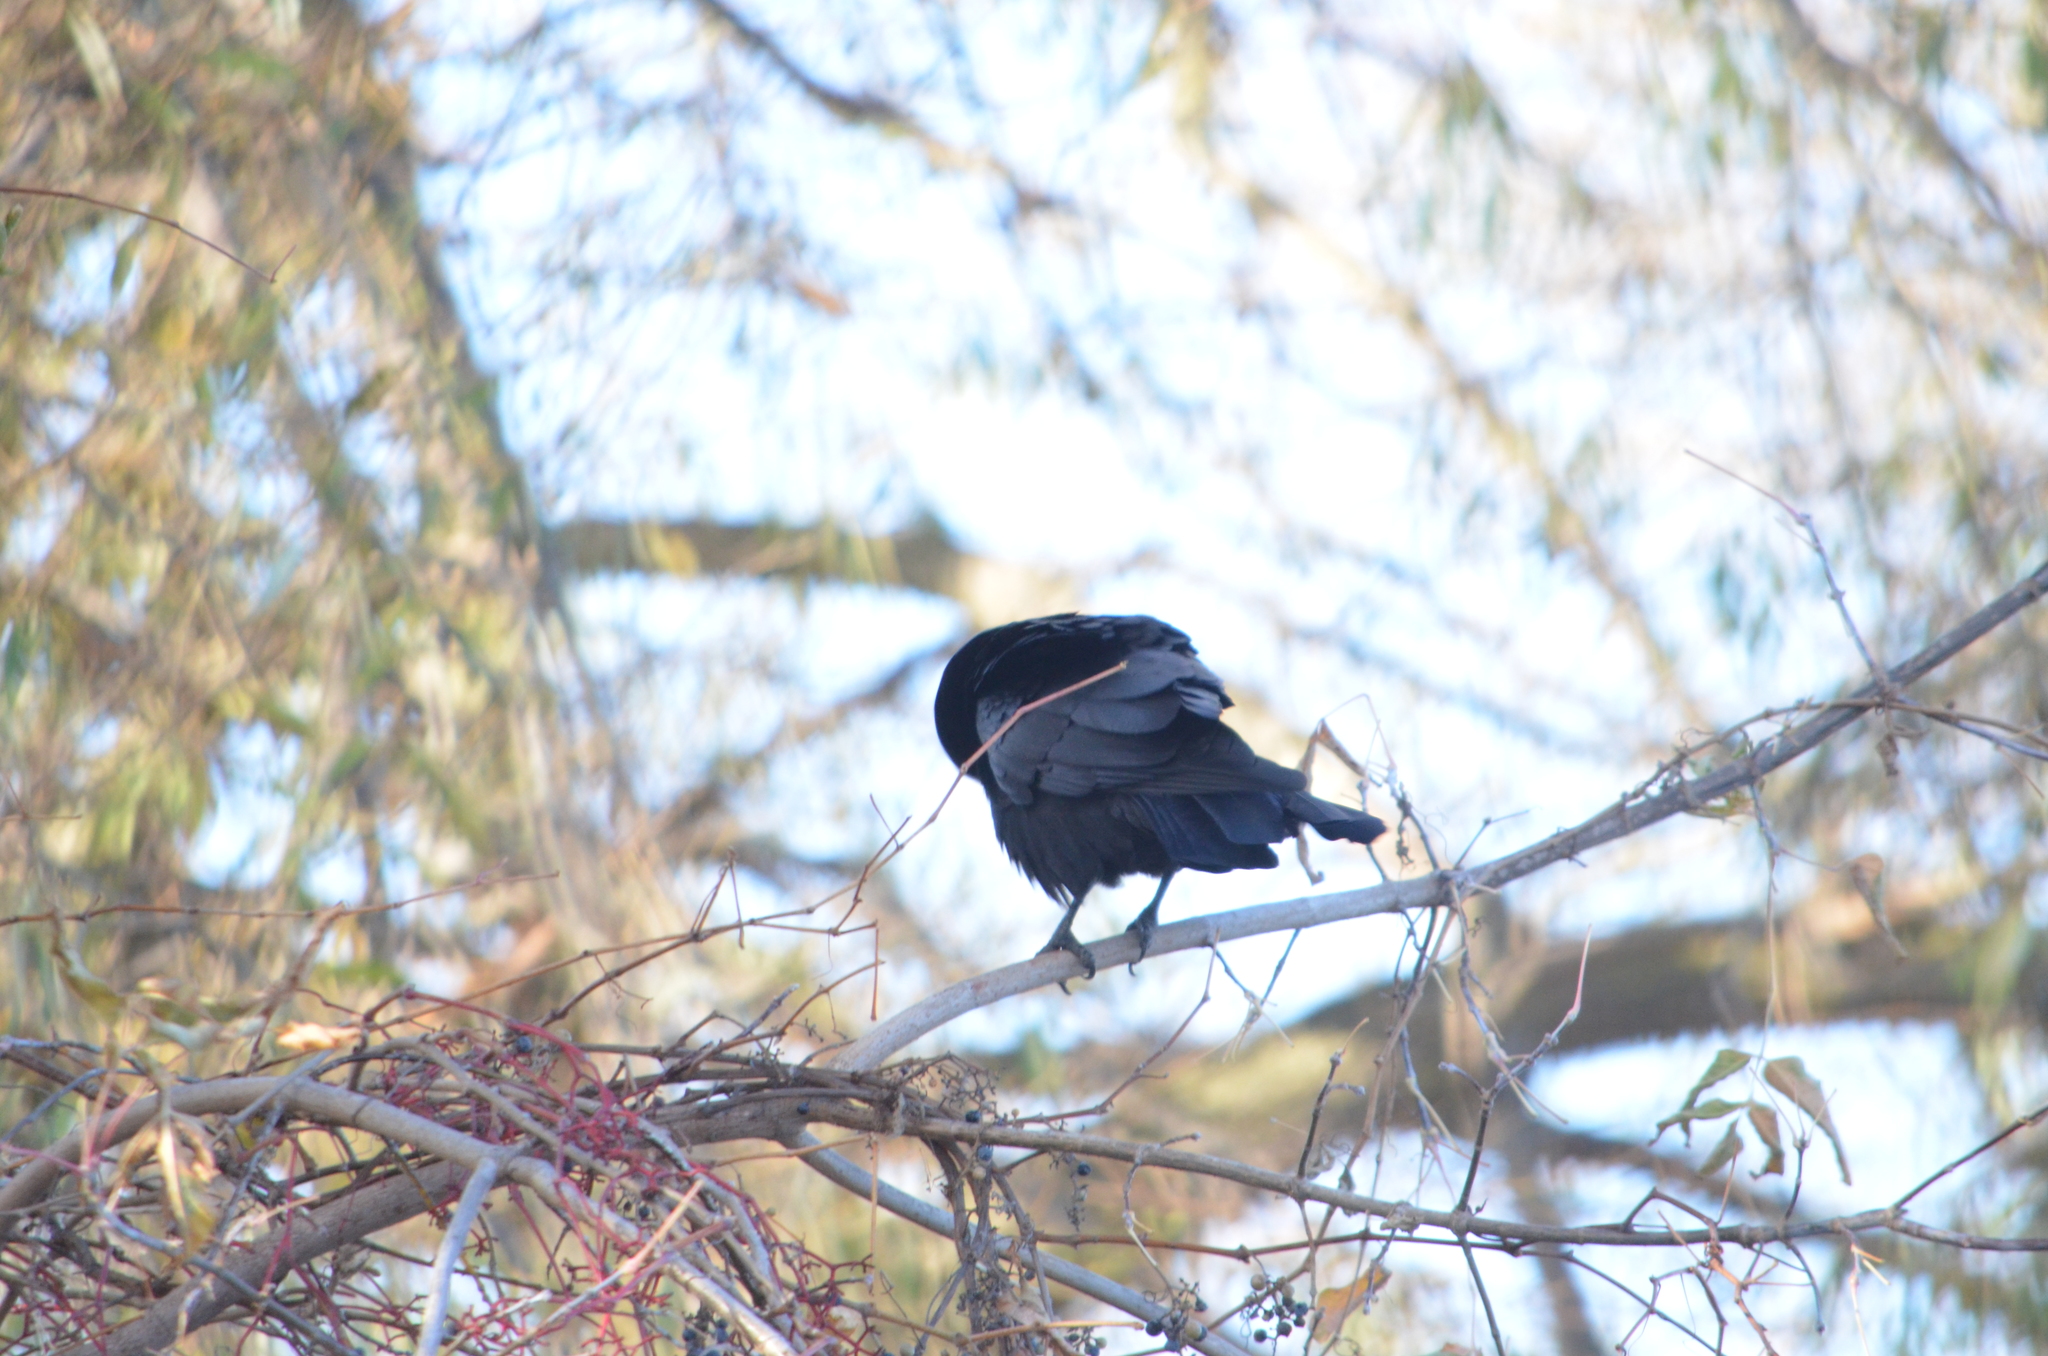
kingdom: Animalia
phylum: Chordata
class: Aves
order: Passeriformes
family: Corvidae
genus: Corvus
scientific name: Corvus brachyrhynchos
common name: American crow
